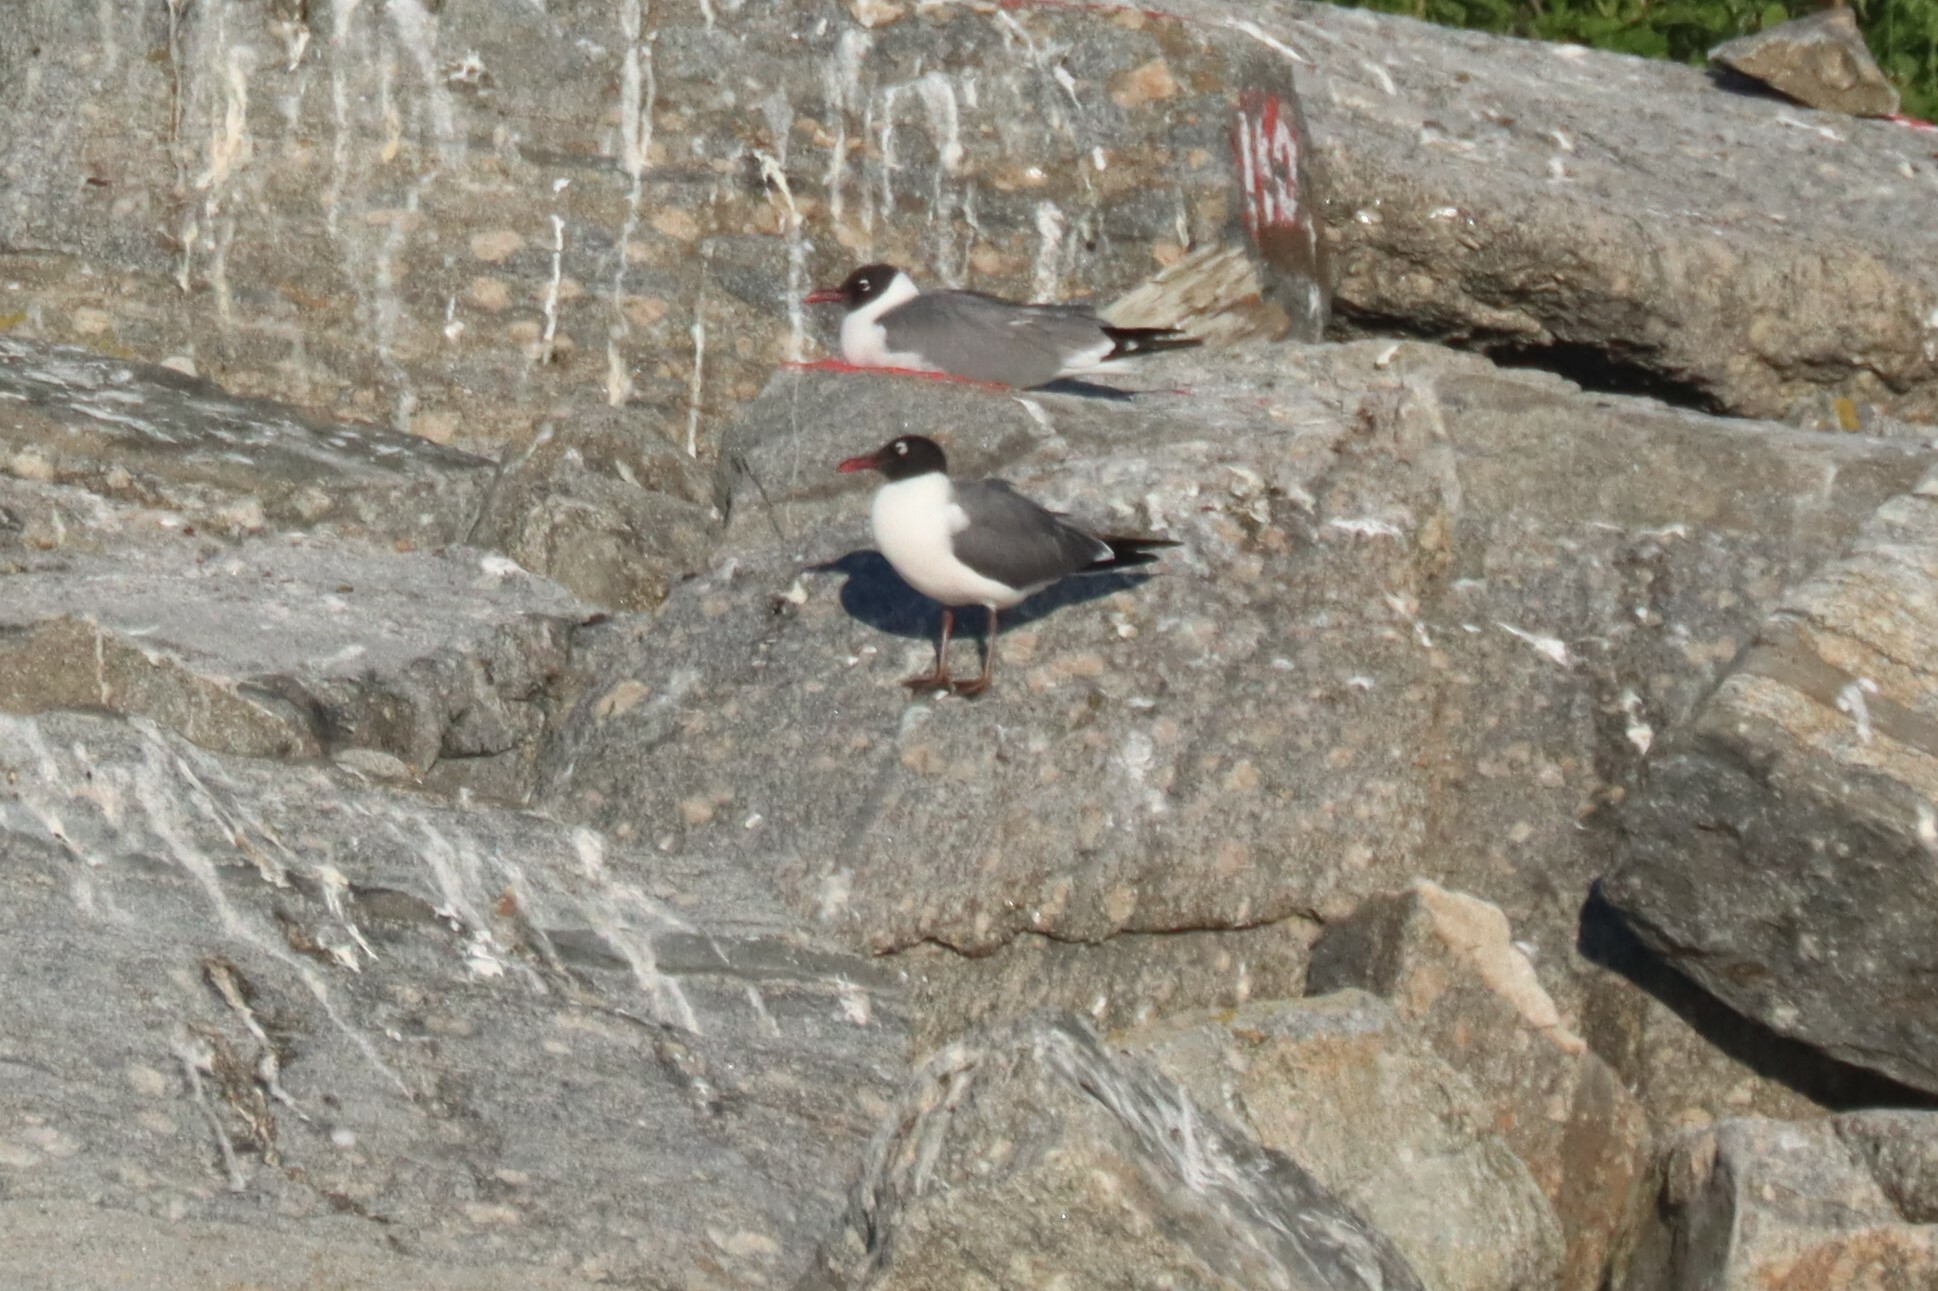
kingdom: Animalia
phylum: Chordata
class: Aves
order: Charadriiformes
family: Laridae
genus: Leucophaeus
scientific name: Leucophaeus atricilla
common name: Laughing gull
